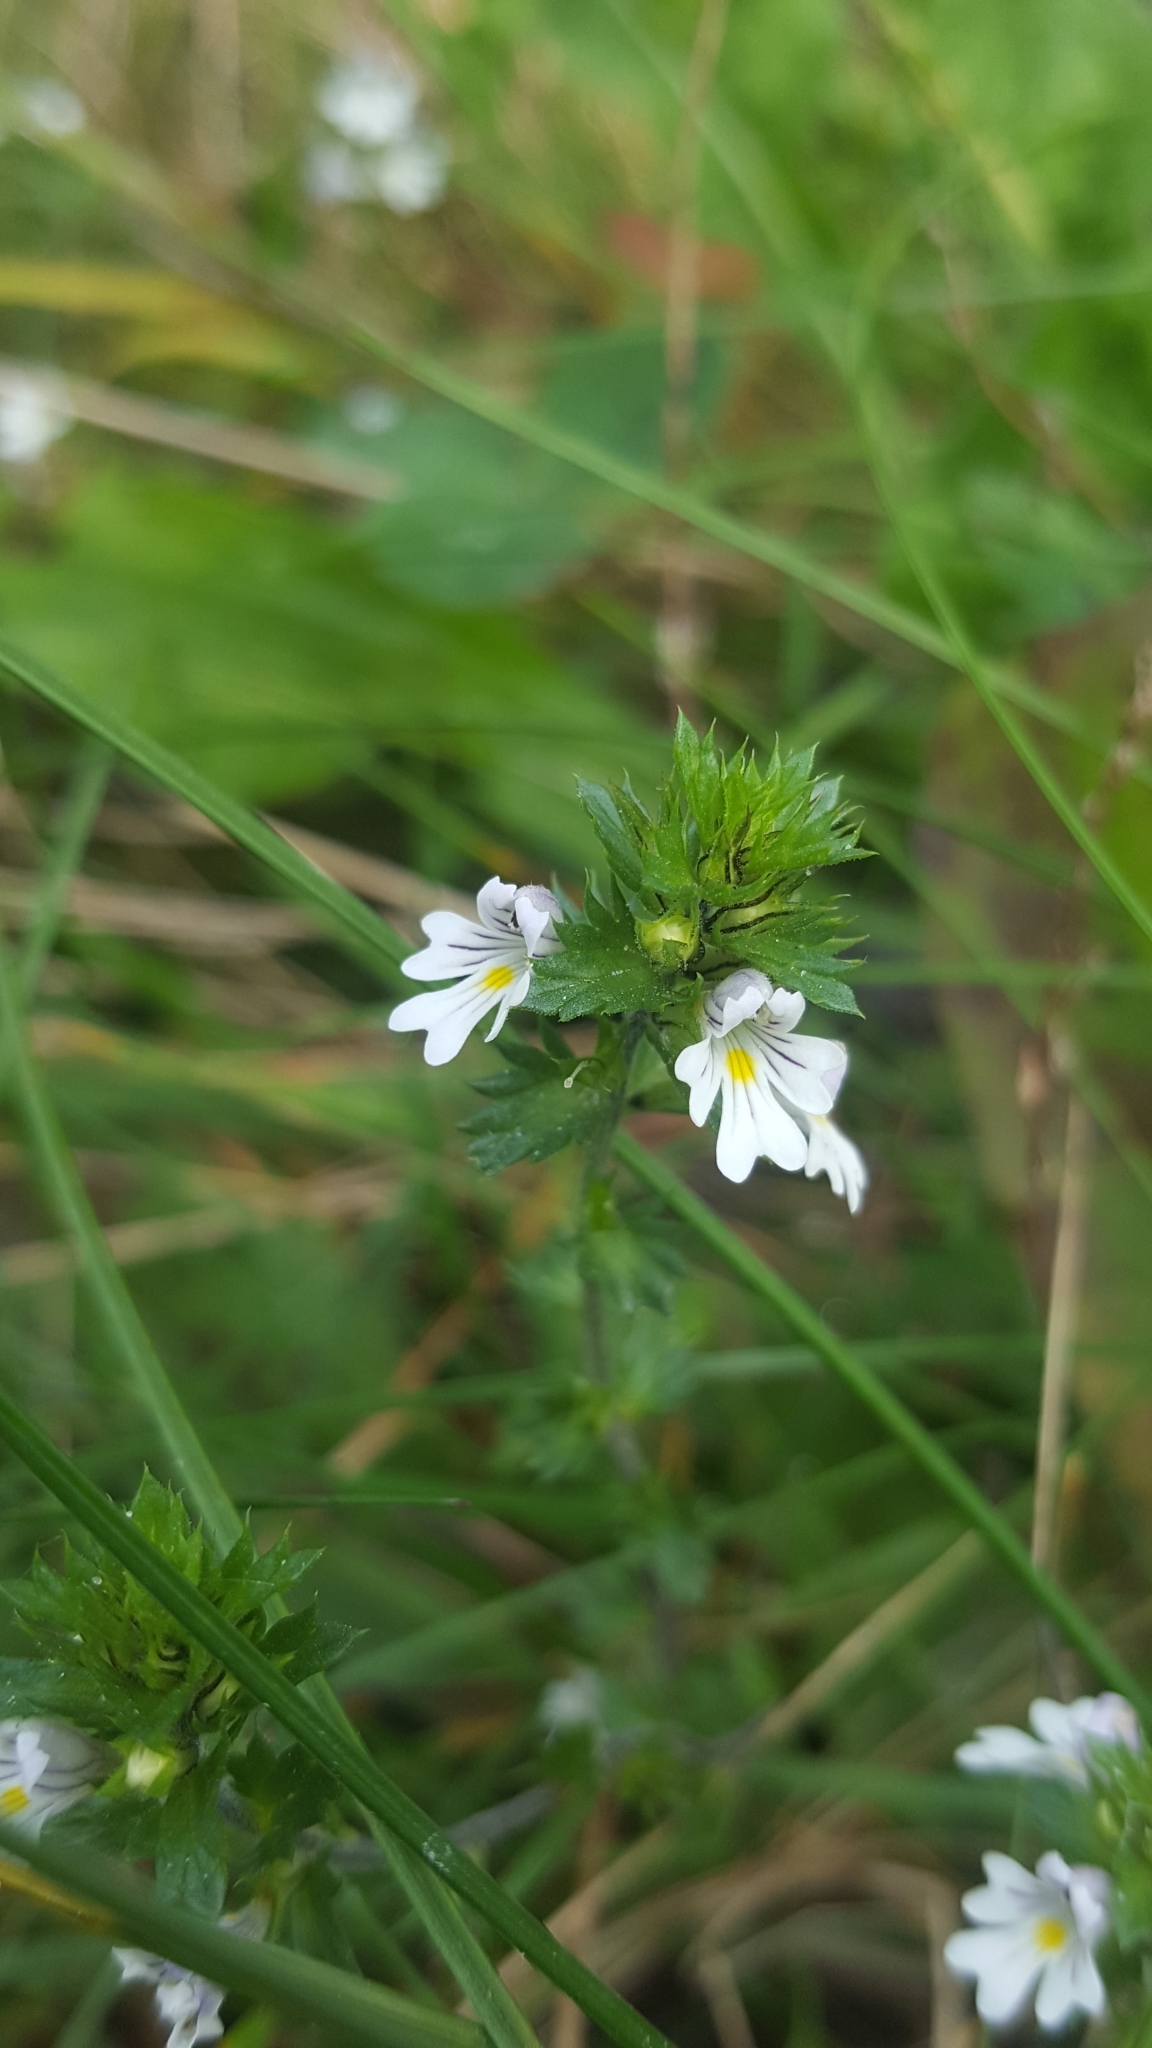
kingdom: Plantae
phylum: Tracheophyta
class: Magnoliopsida
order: Lamiales
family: Orobanchaceae
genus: Euphrasia
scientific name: Euphrasia nemorosa
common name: Common eyebright
